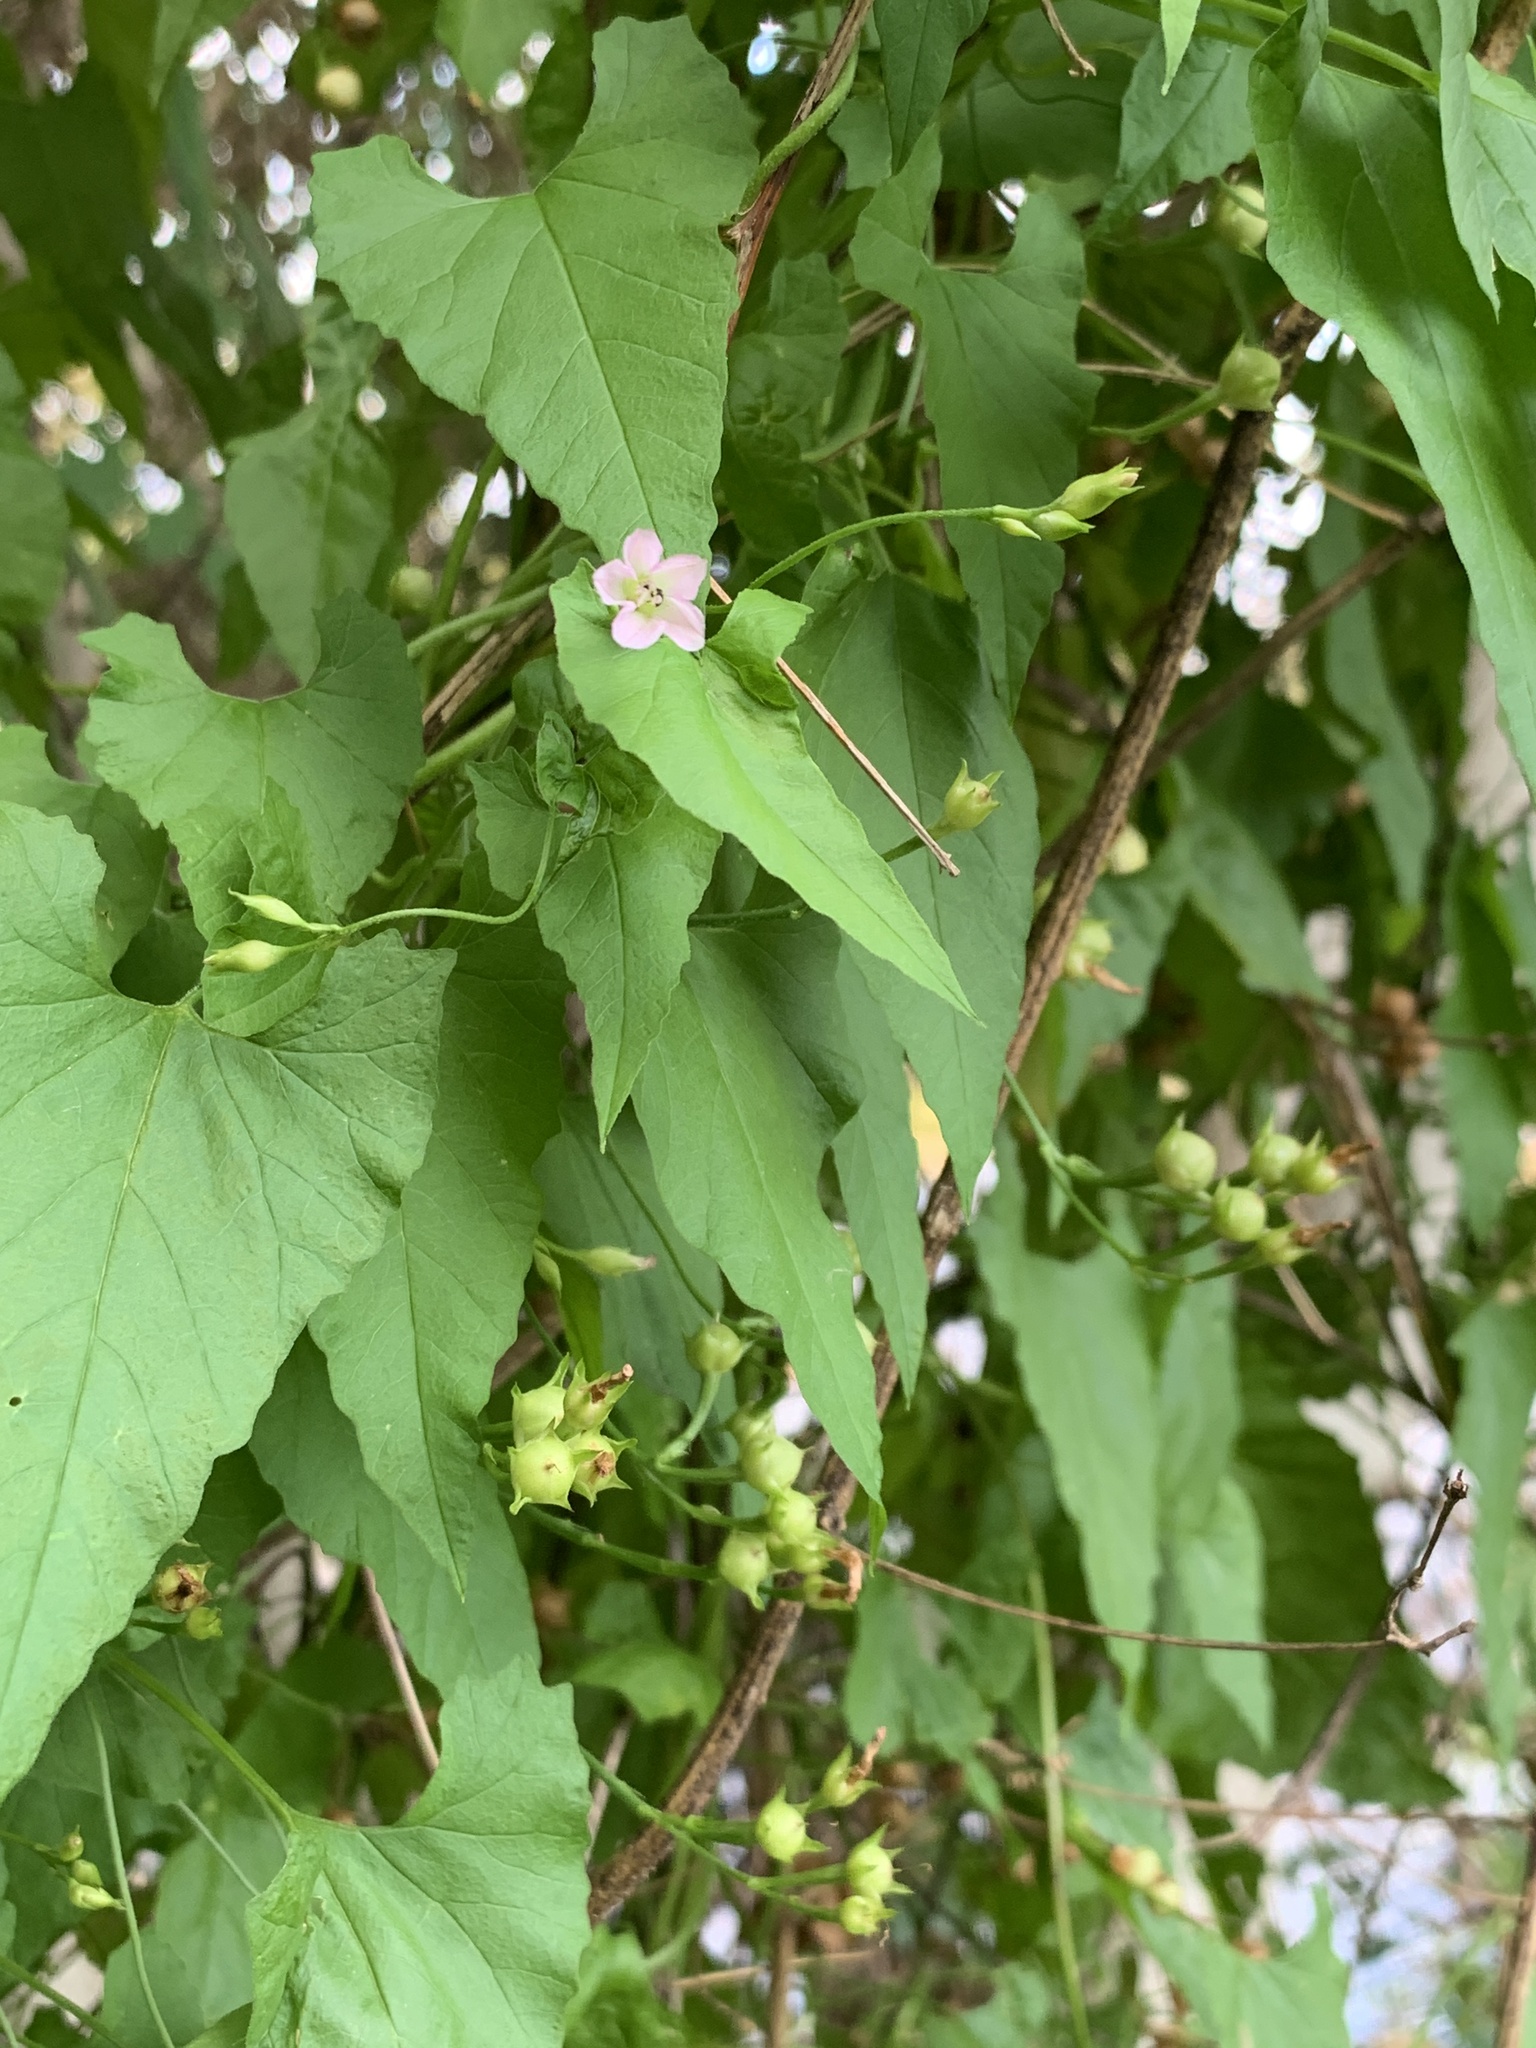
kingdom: Plantae
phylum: Tracheophyta
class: Magnoliopsida
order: Solanales
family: Convolvulaceae
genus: Convolvulus
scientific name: Convolvulus farinosus
